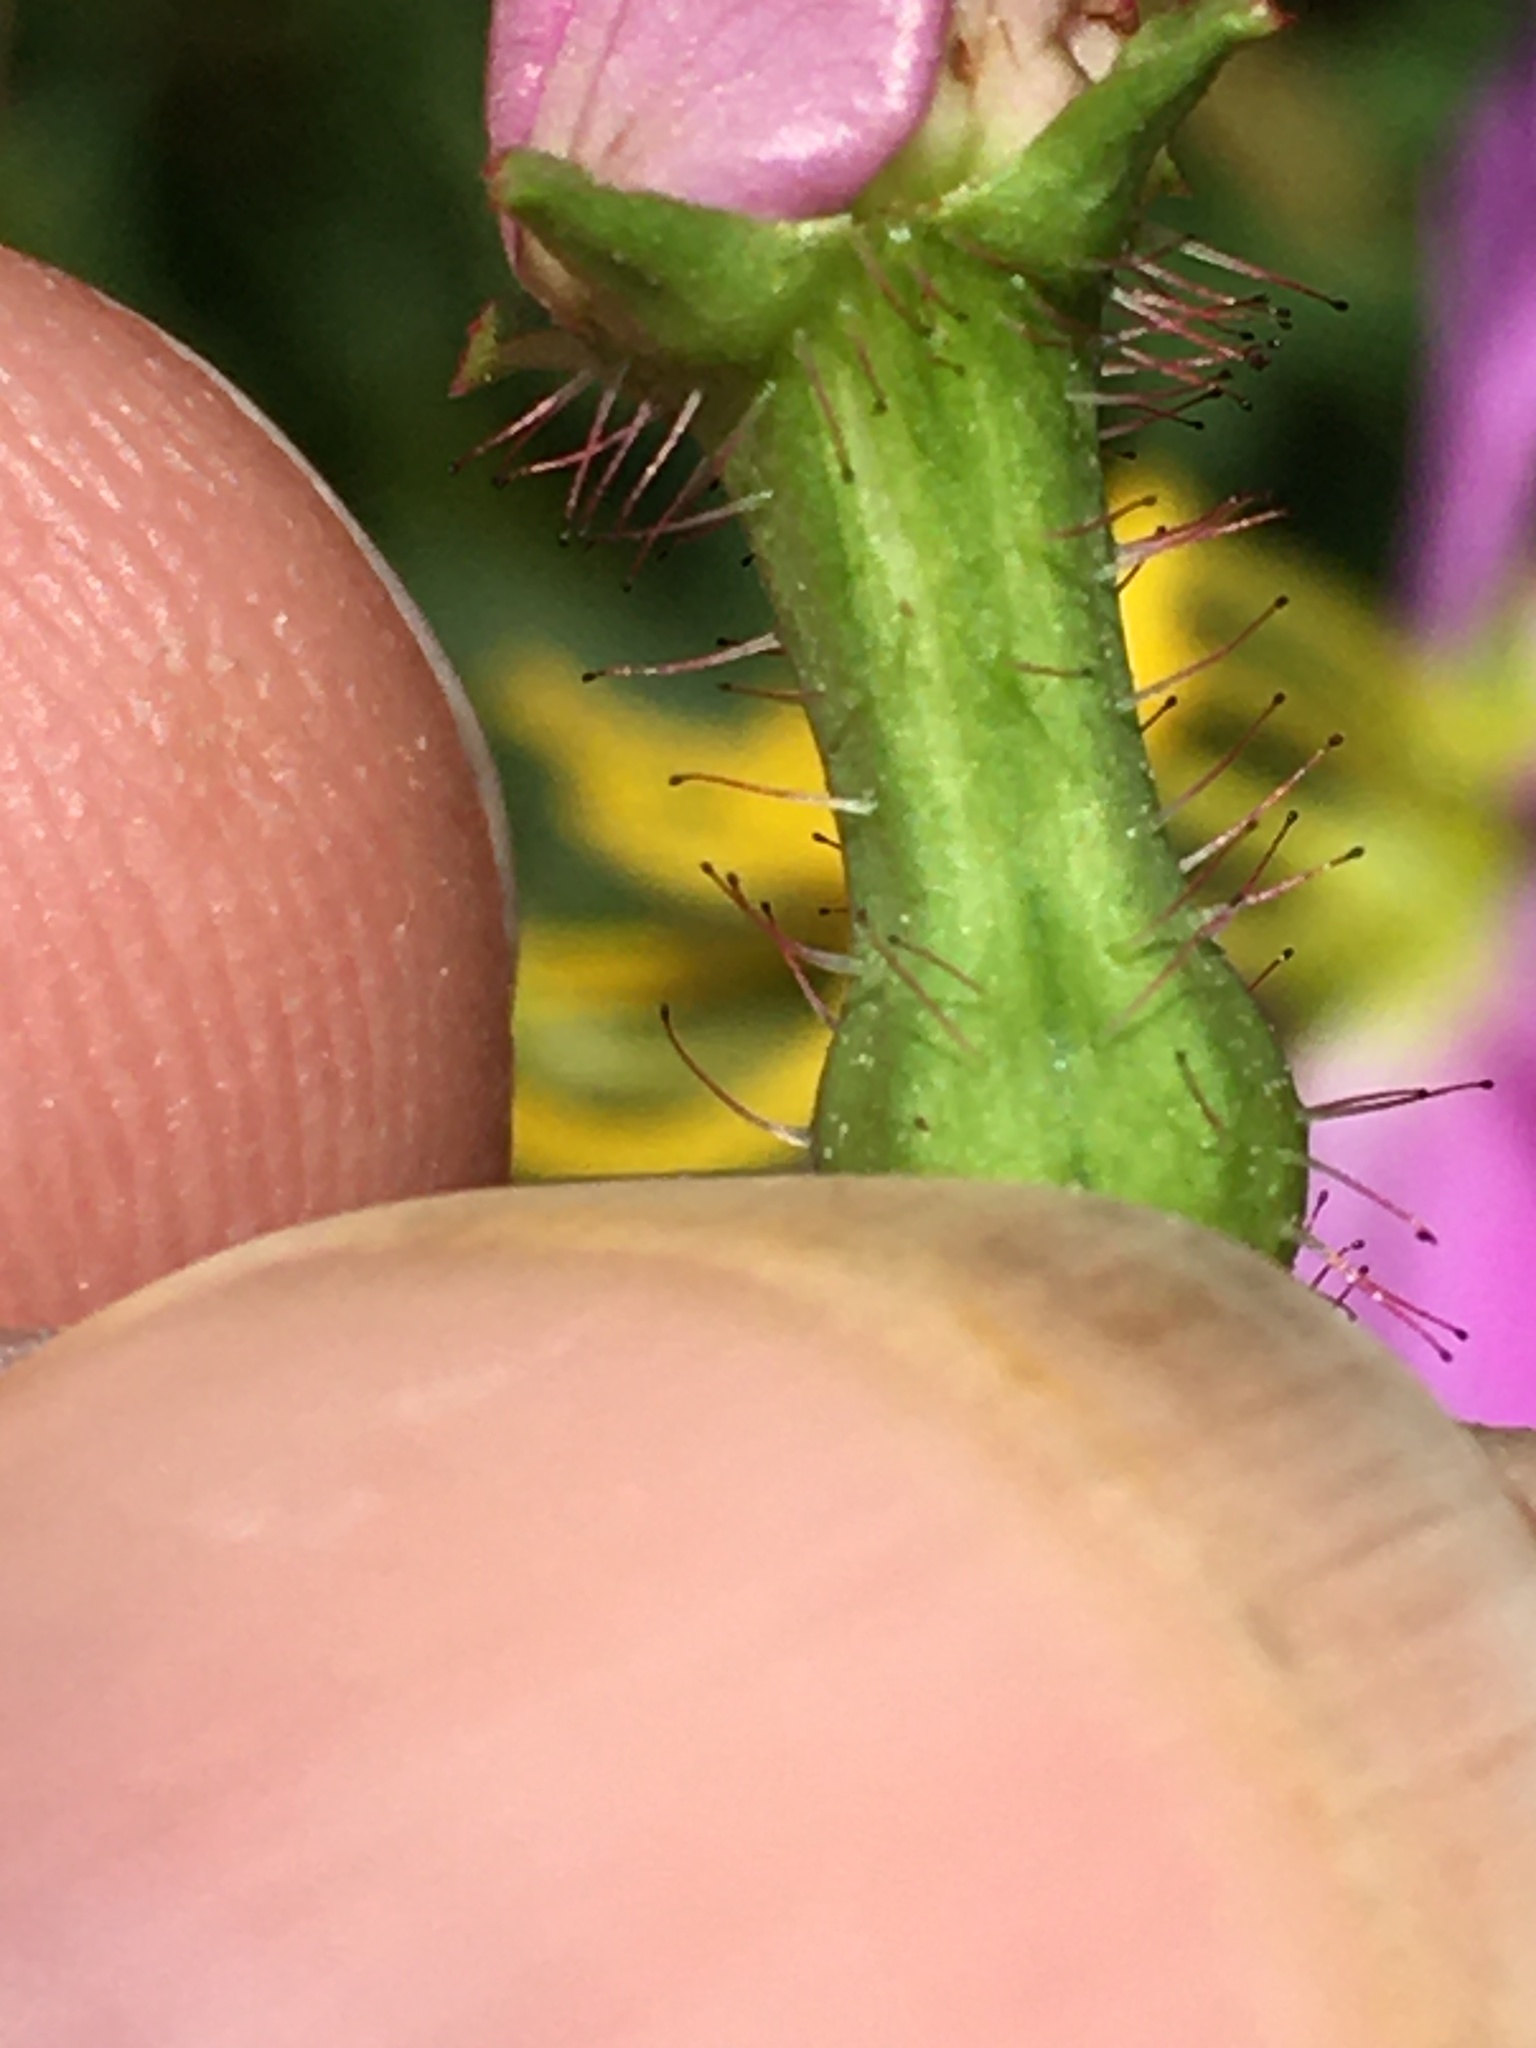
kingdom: Plantae
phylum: Tracheophyta
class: Magnoliopsida
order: Myrtales
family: Melastomataceae
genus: Rhexia
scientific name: Rhexia virginica
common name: Common meadow beauty
